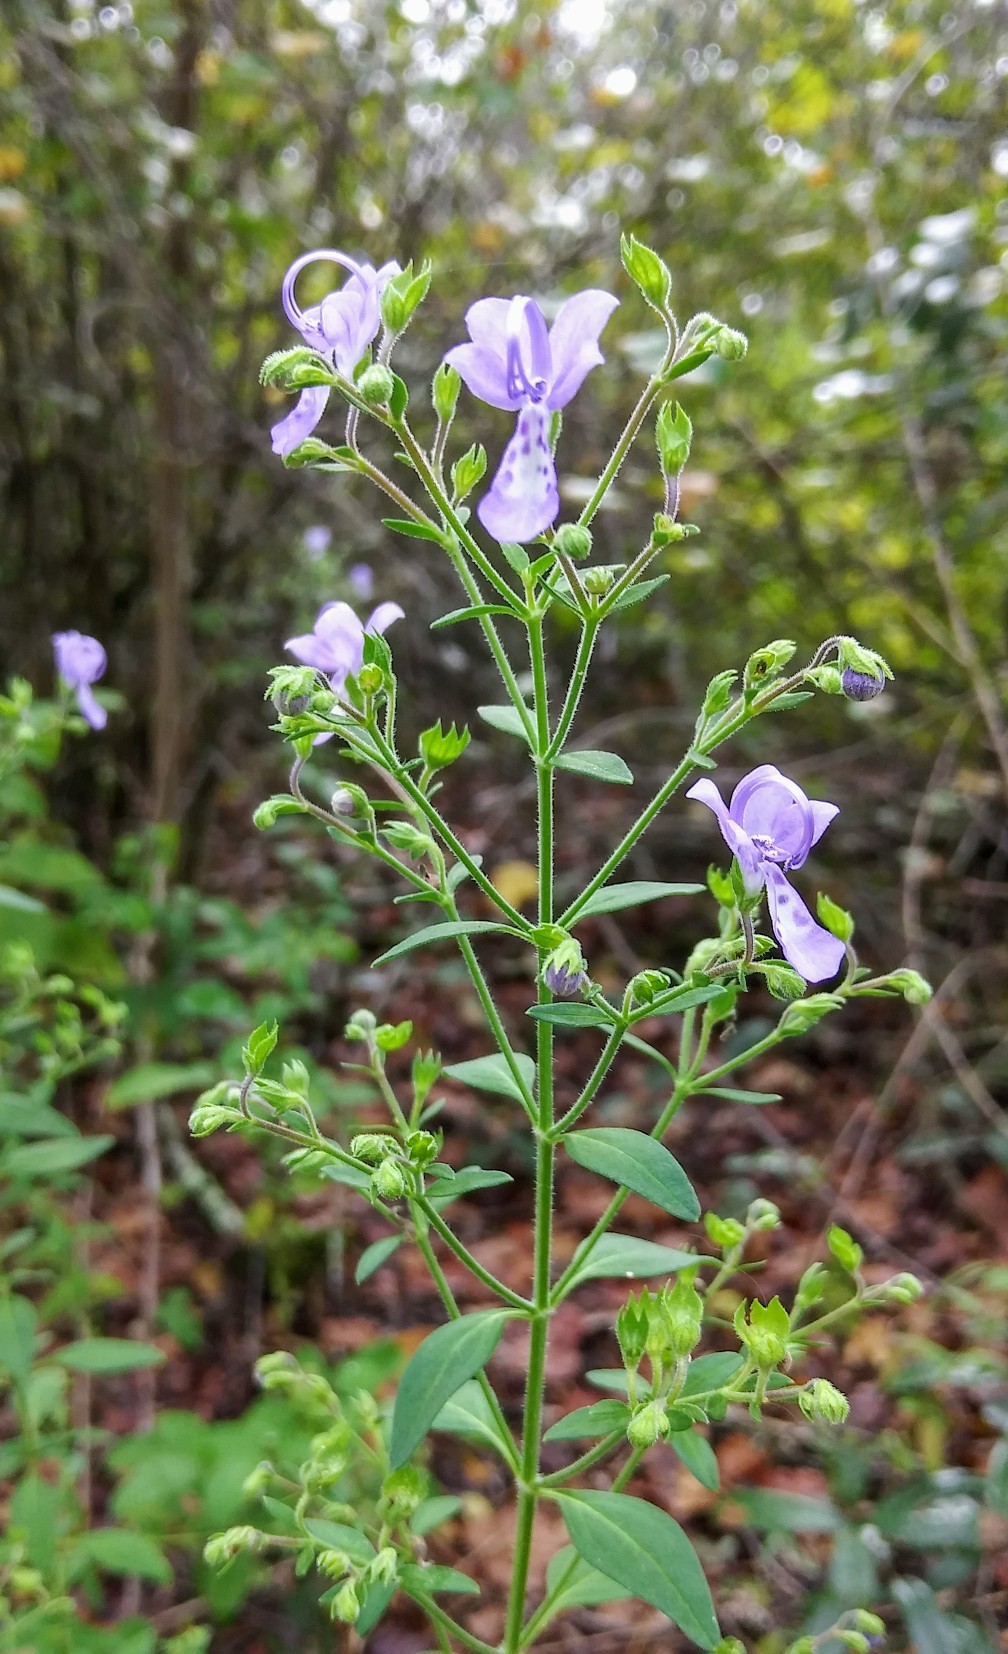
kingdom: Plantae
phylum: Tracheophyta
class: Magnoliopsida
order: Lamiales
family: Lamiaceae
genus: Trichostema
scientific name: Trichostema dichotomum
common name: Bastard pennyroyal
